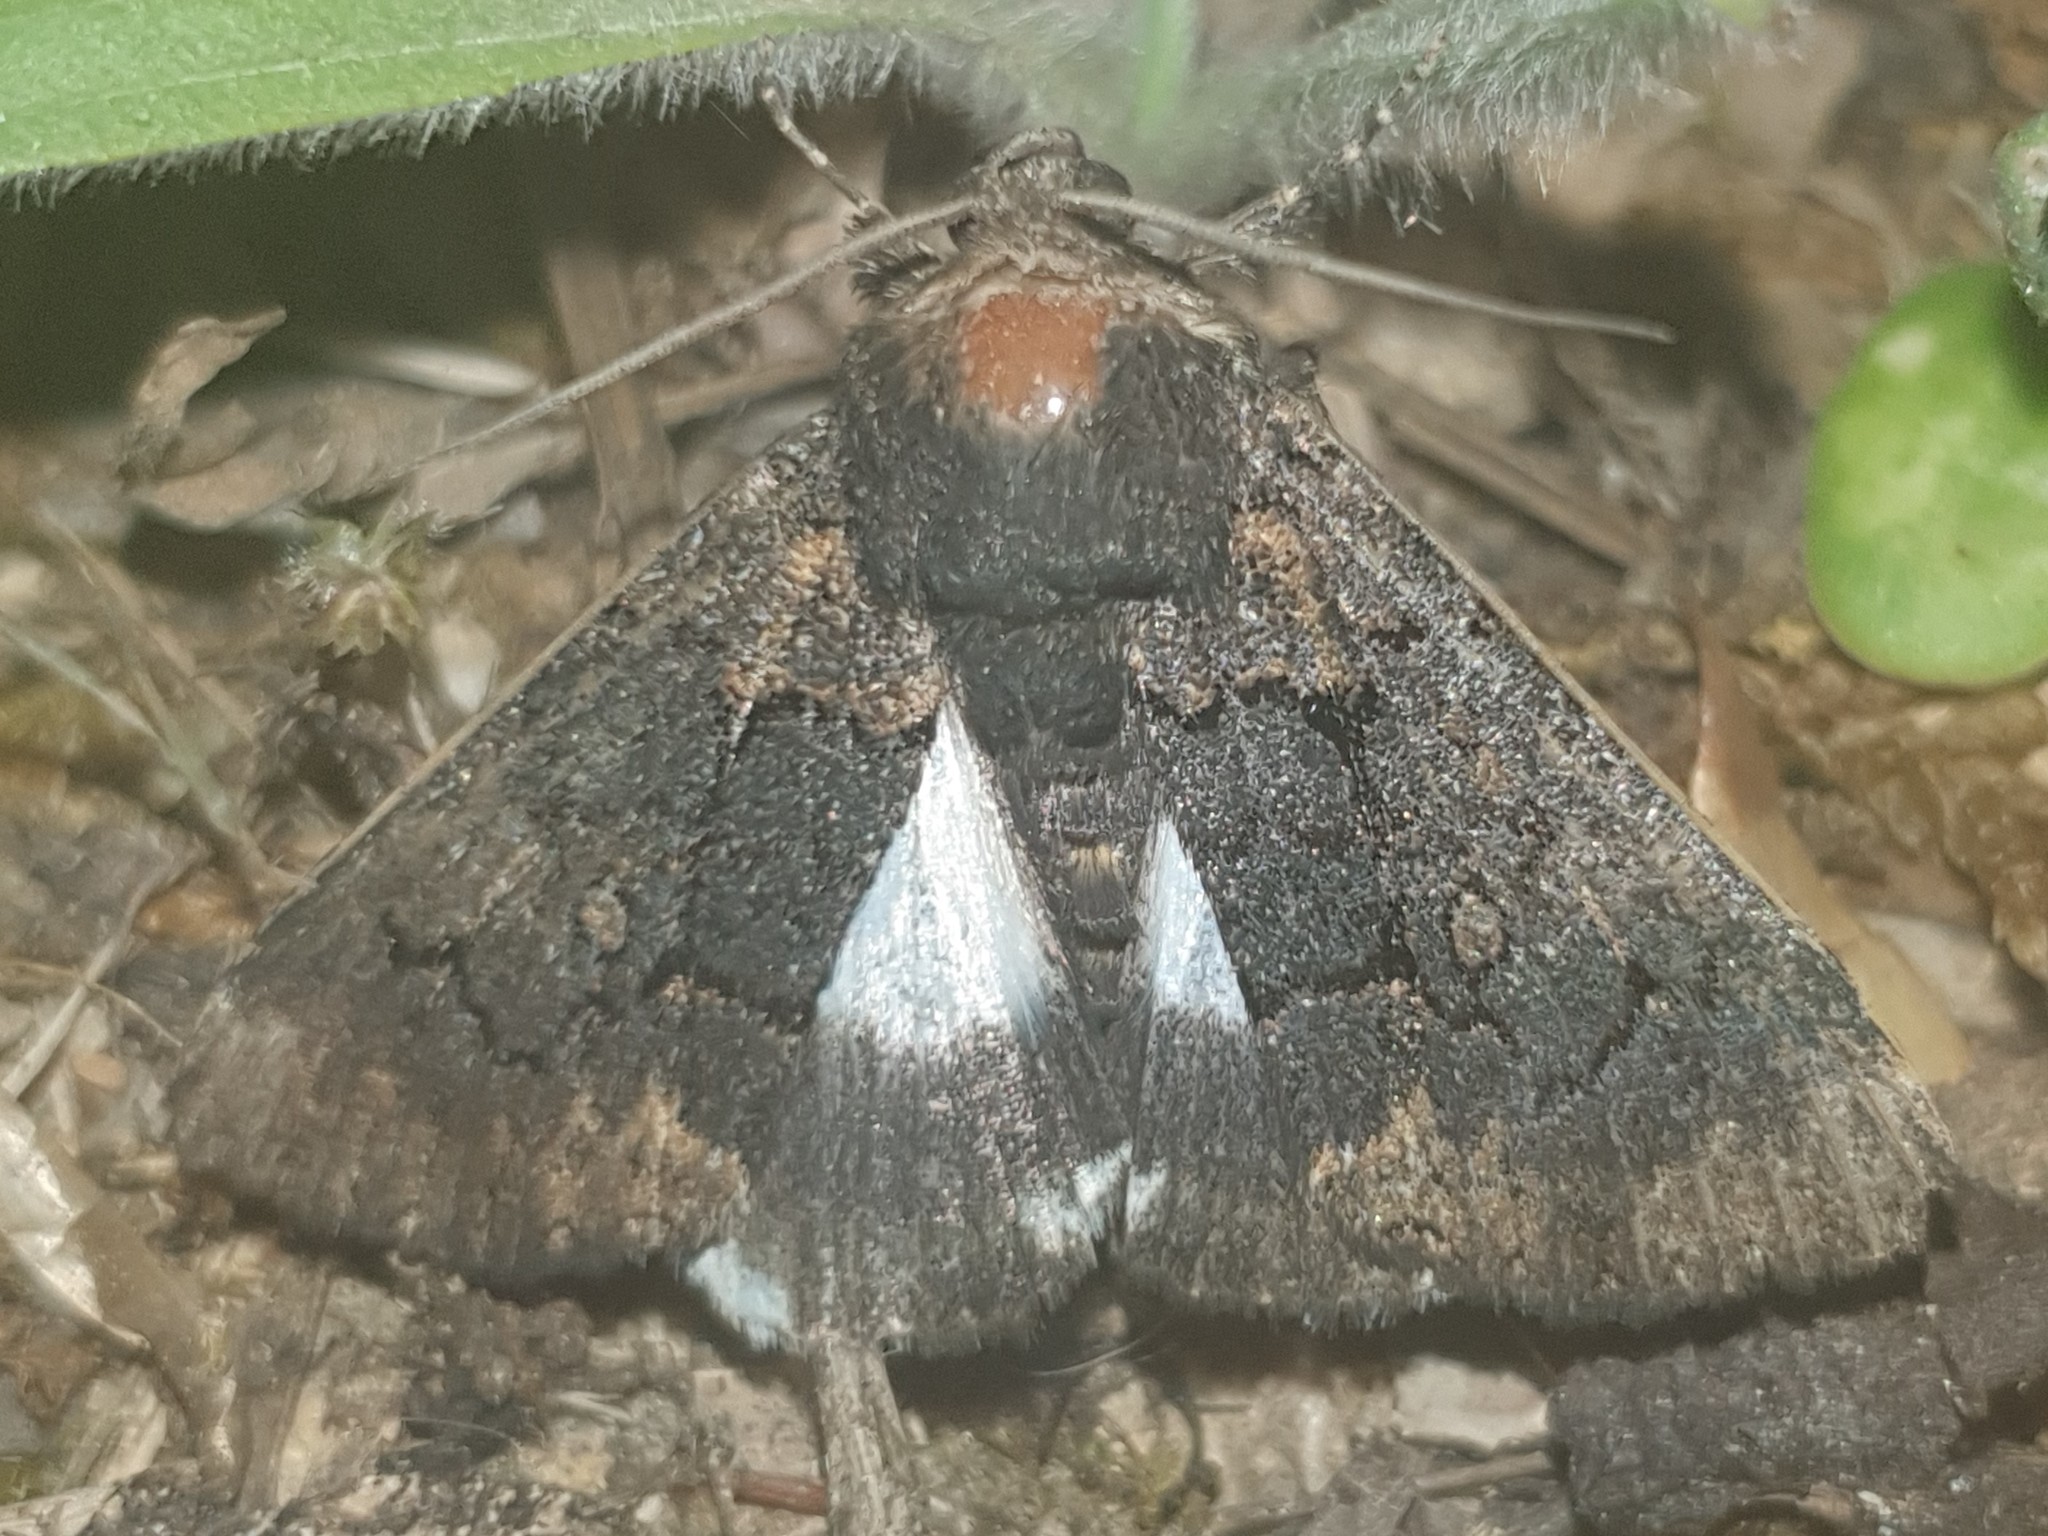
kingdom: Animalia
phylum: Arthropoda
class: Insecta
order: Lepidoptera
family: Erebidae
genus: Catephia
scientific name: Catephia alchymista
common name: Alchymist
